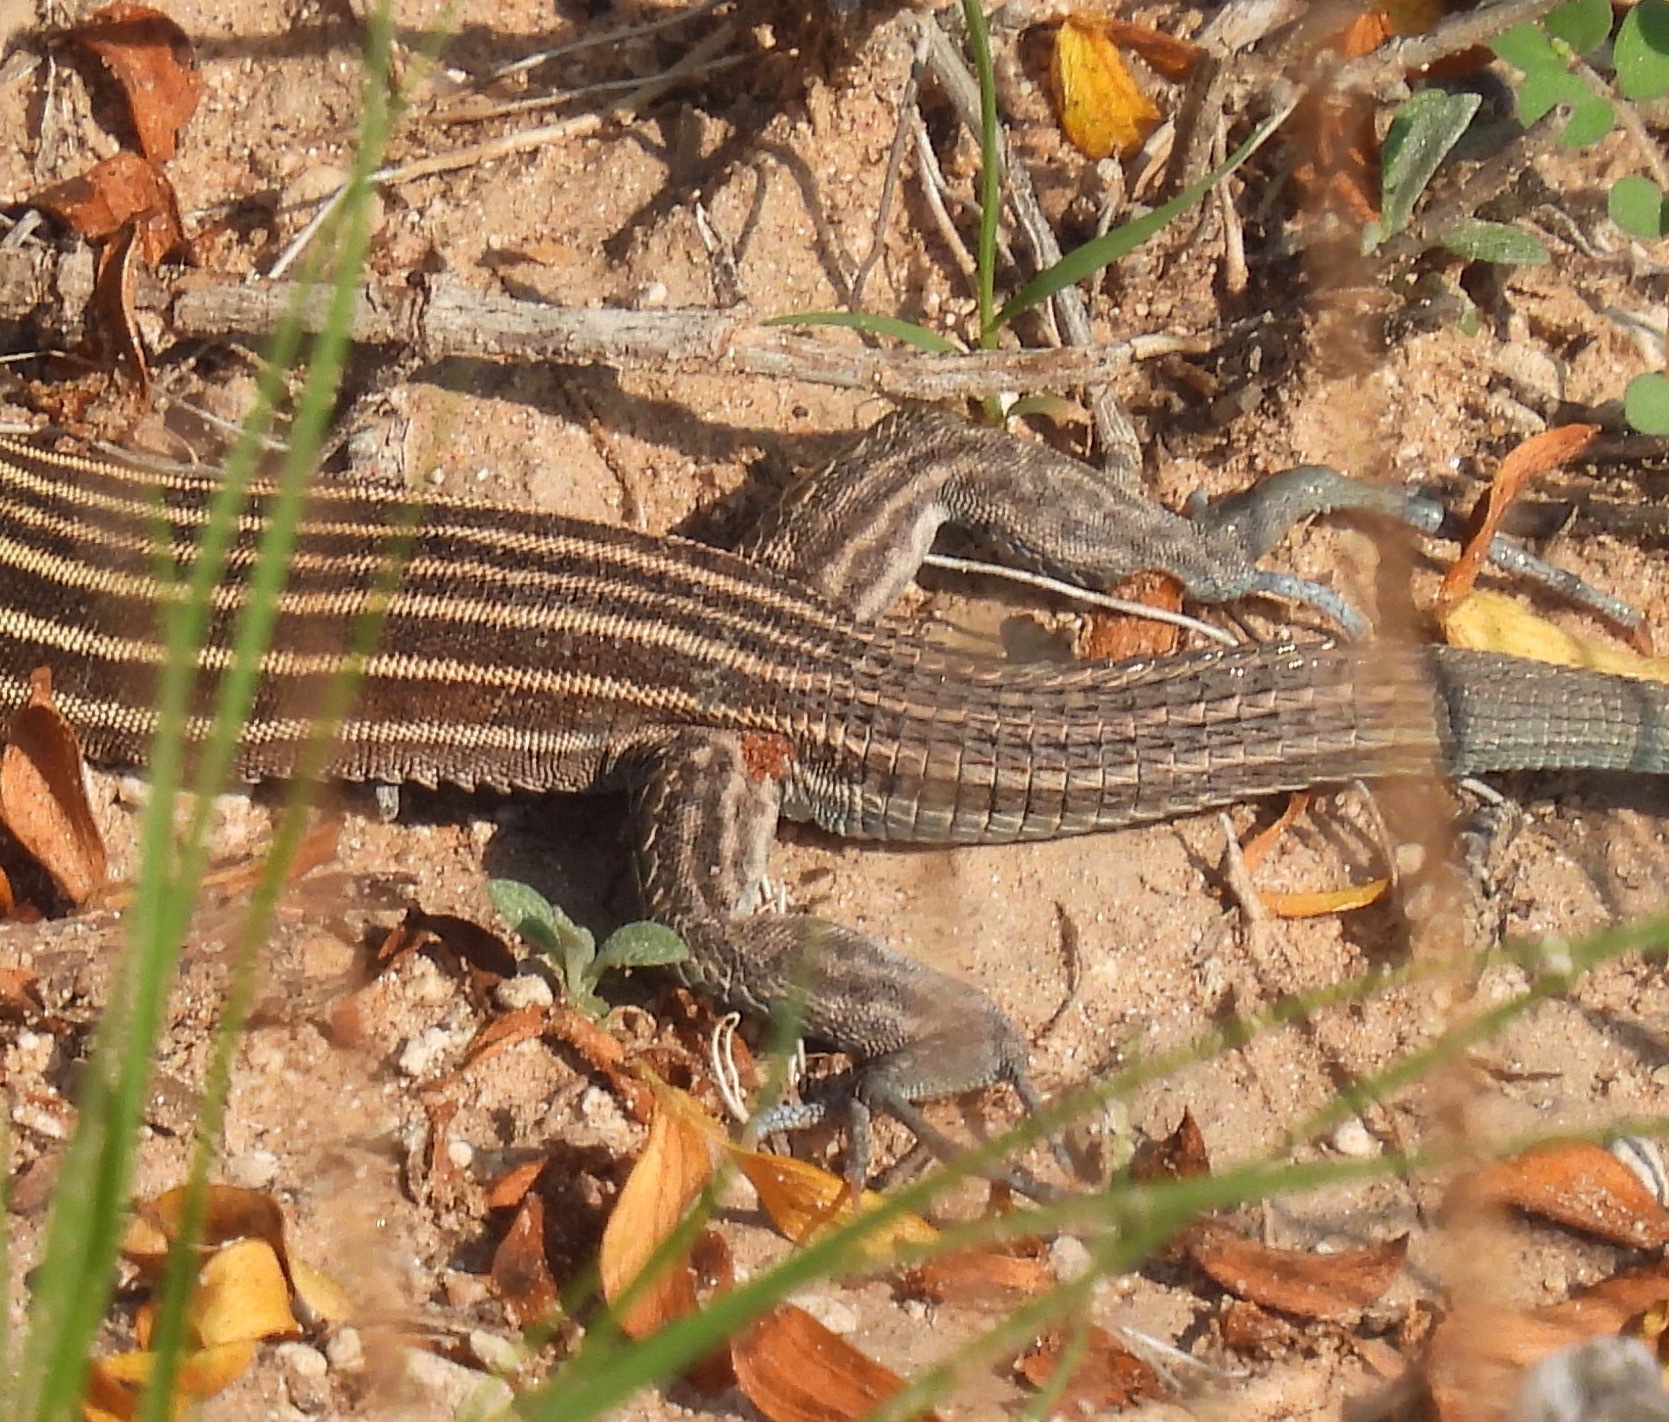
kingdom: Animalia
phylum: Chordata
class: Squamata
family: Teiidae
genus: Aspidoscelis
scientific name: Aspidoscelis inornatus
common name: Little striped whiptail
